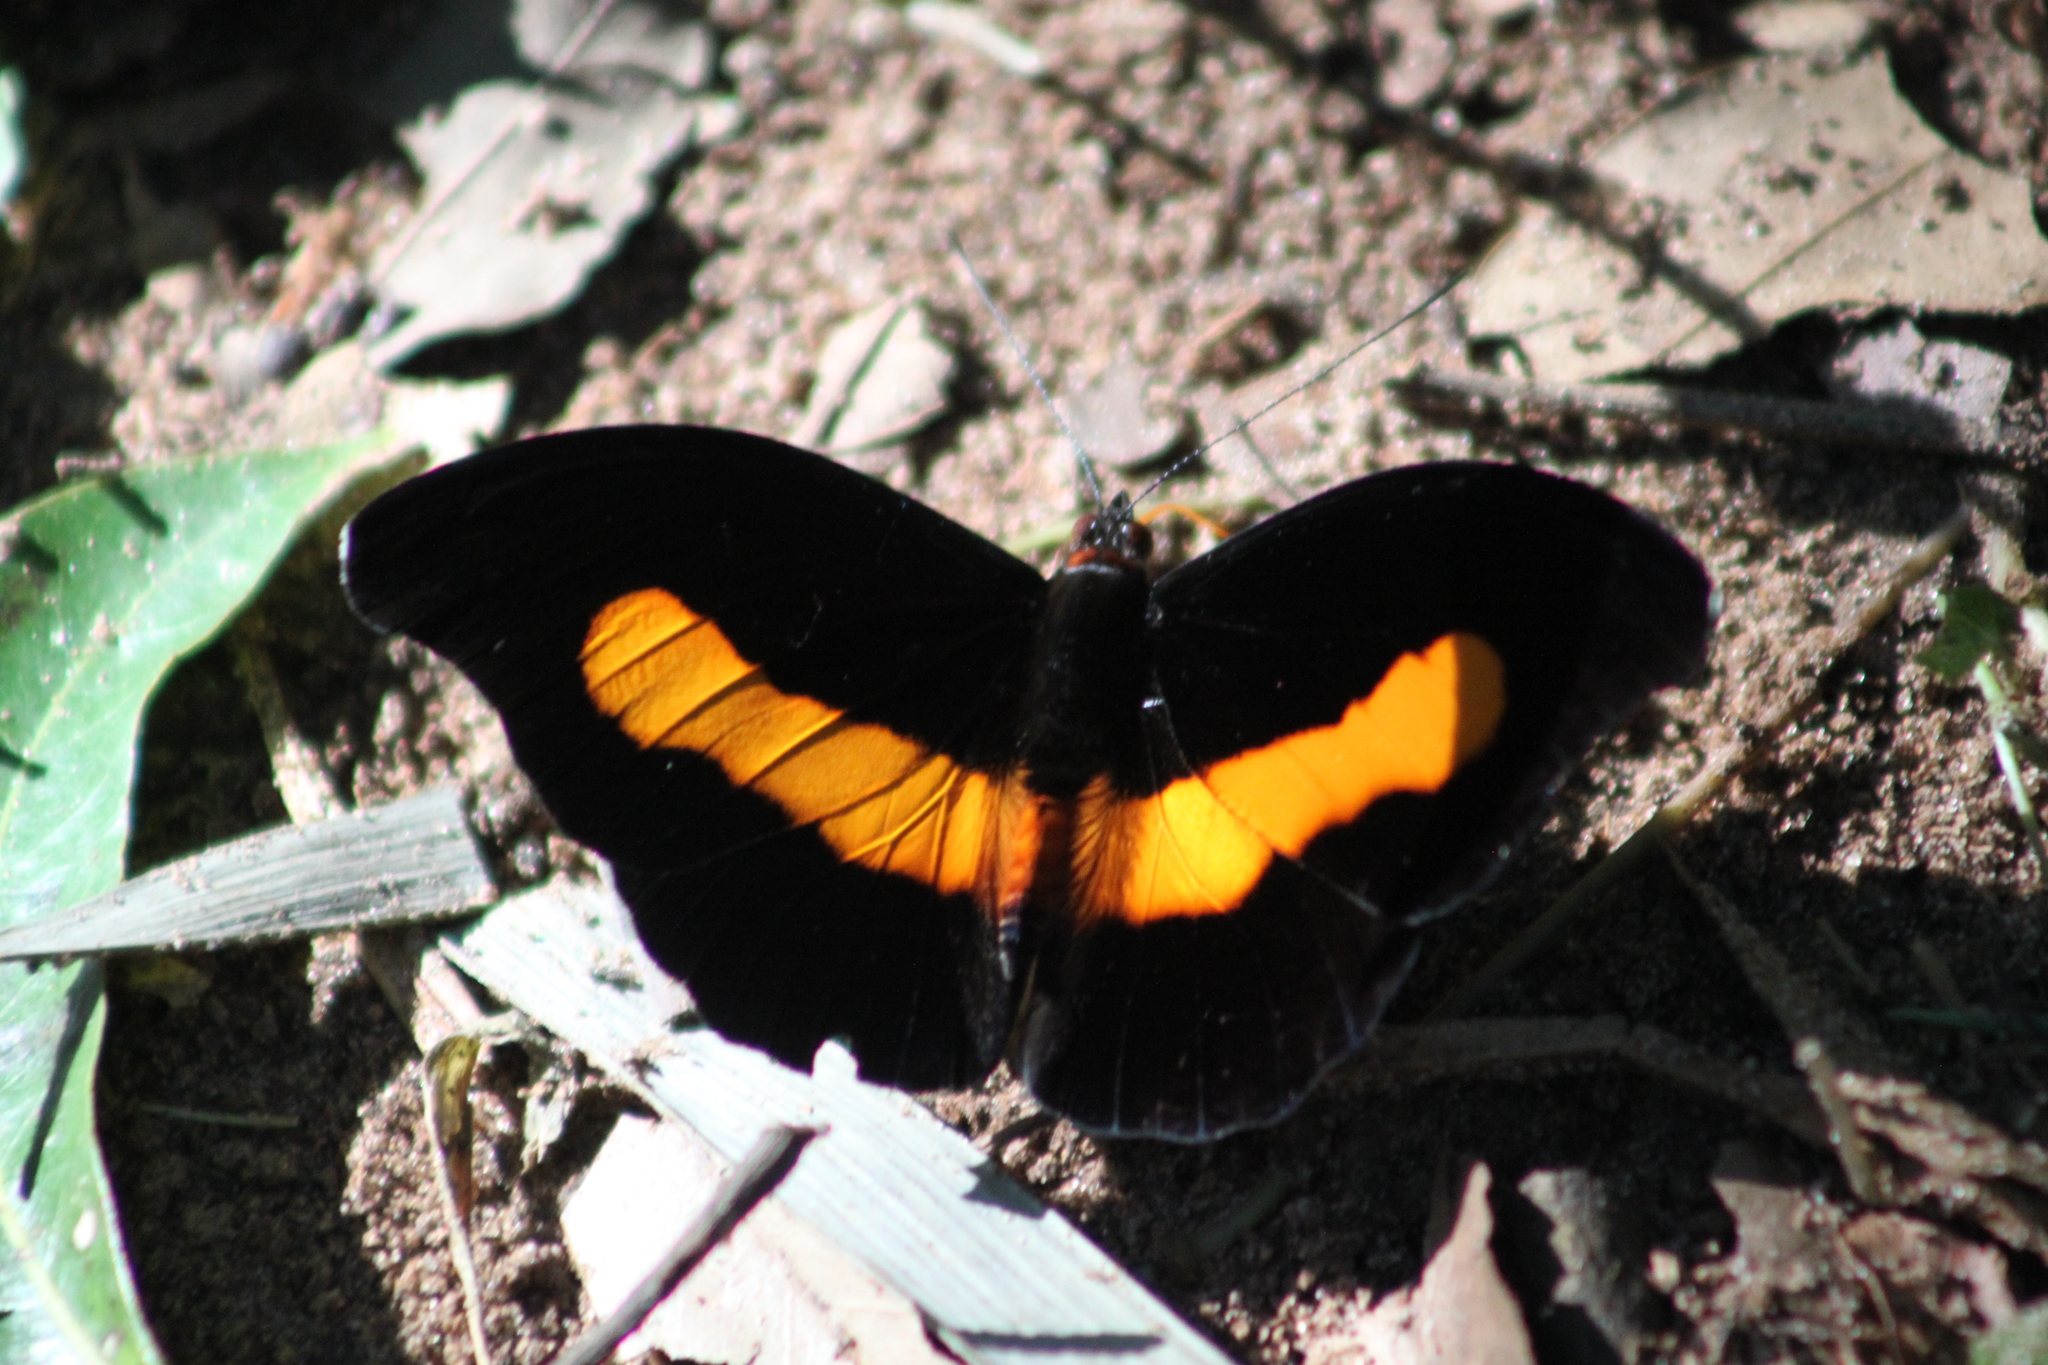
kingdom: Animalia
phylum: Arthropoda
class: Insecta
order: Lepidoptera
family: Nymphalidae
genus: Catonephele
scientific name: Catonephele acontius
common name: Unspotted firewing
